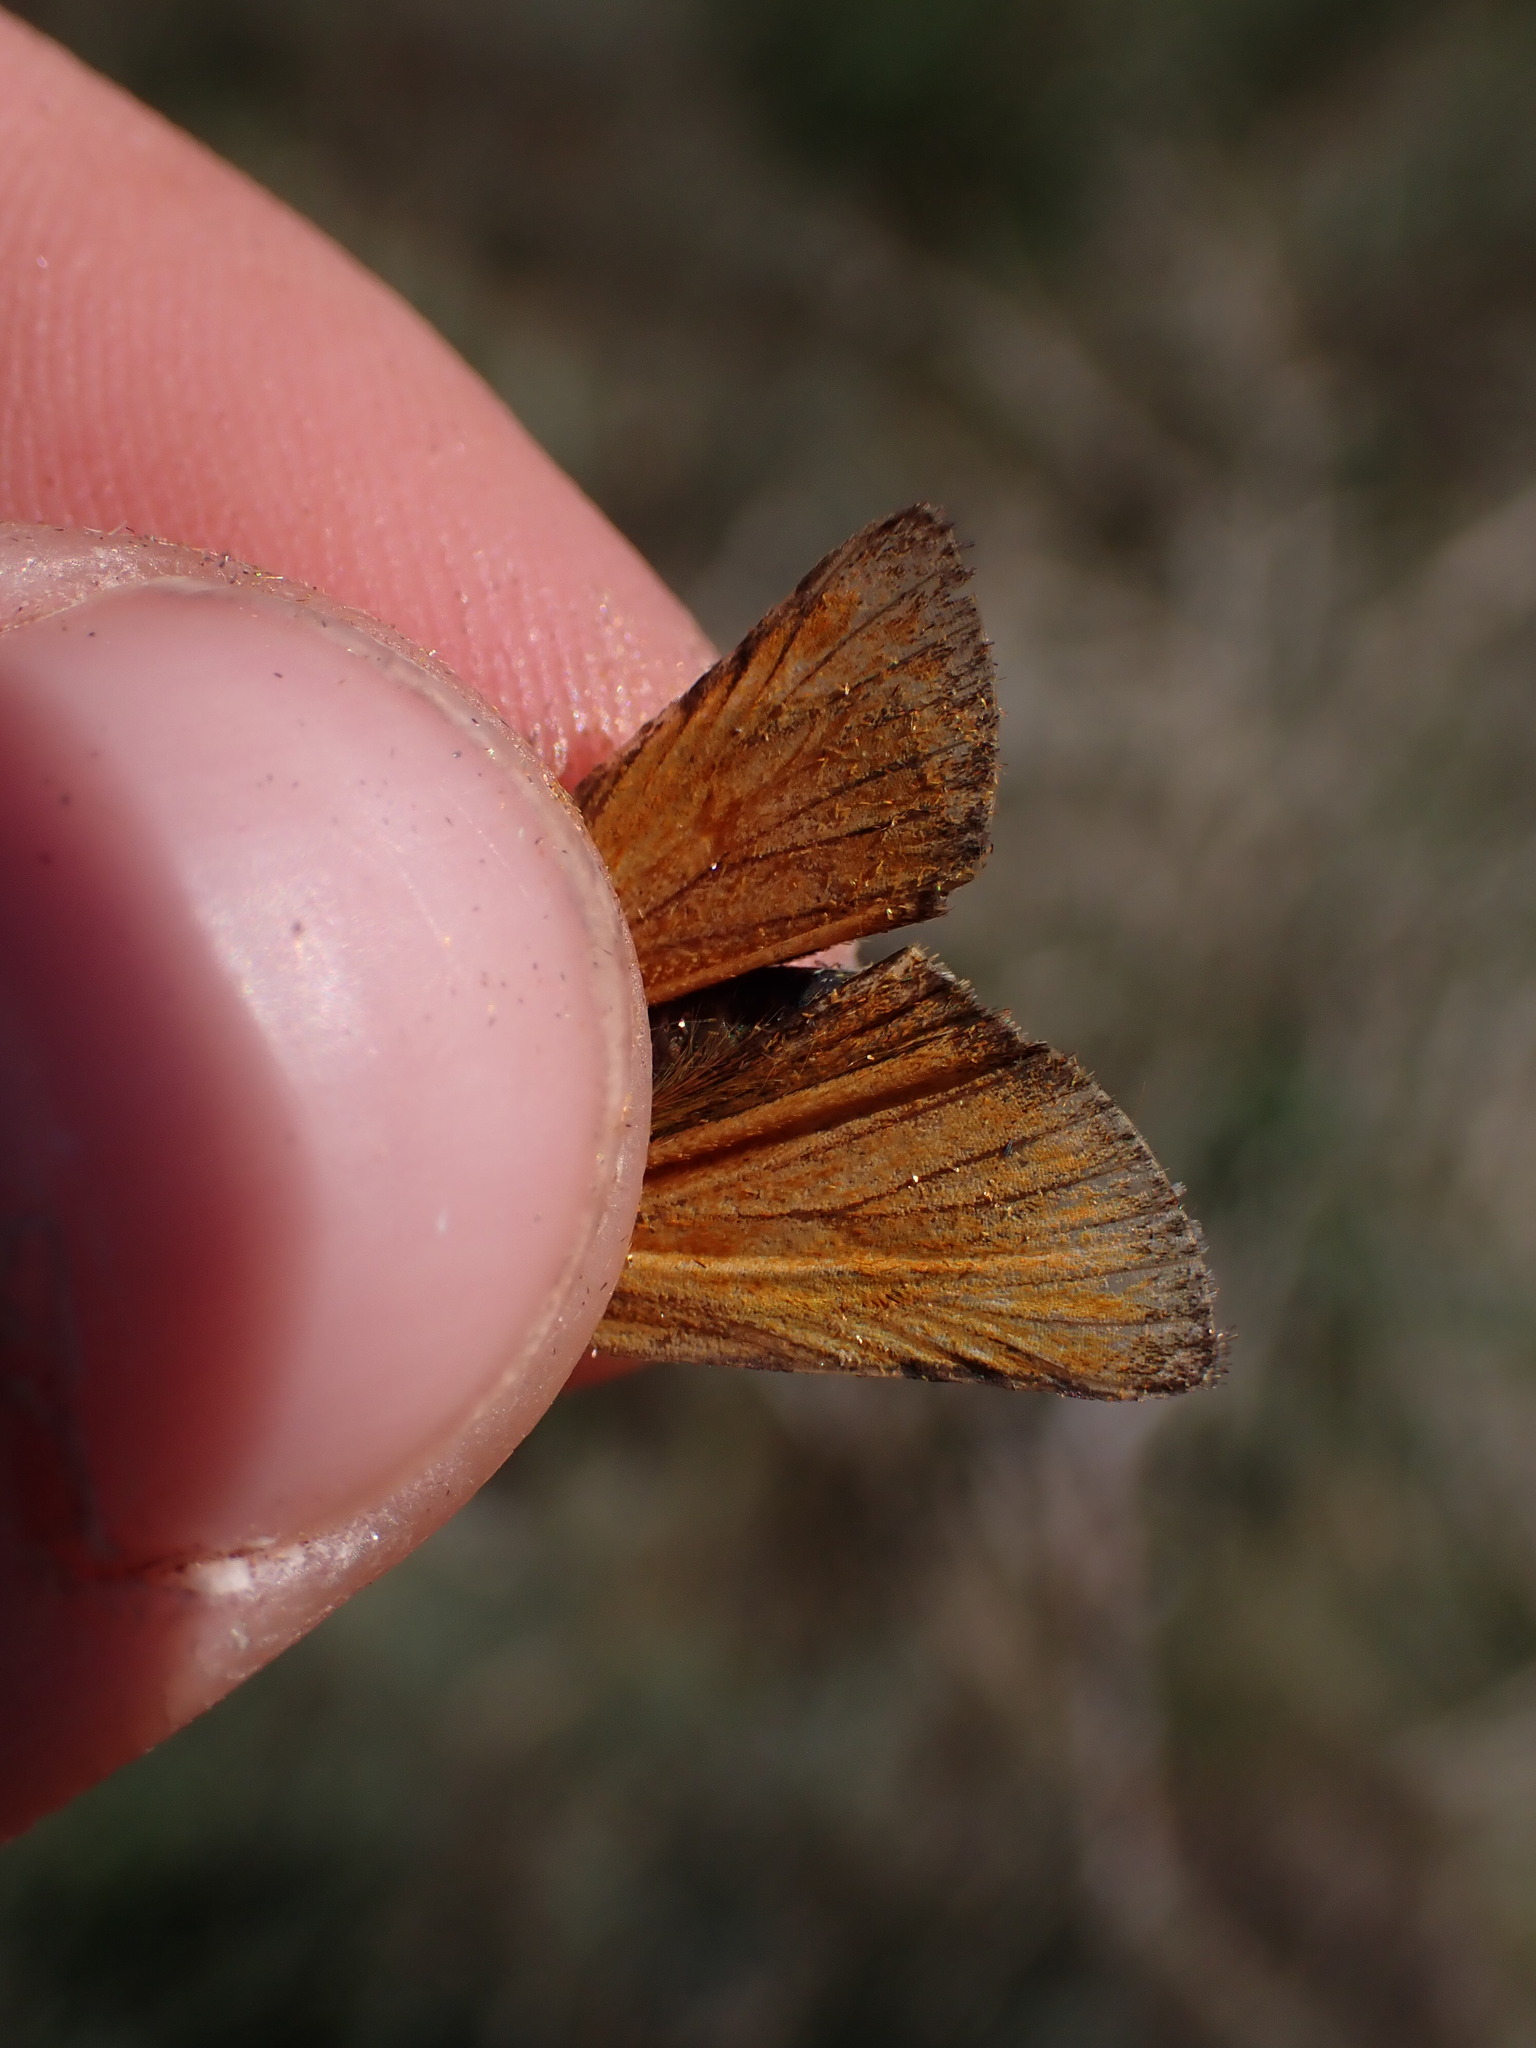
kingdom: Animalia
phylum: Arthropoda
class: Insecta
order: Lepidoptera
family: Hesperiidae
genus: Thymelicus
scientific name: Thymelicus sylvestris
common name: Small skipper
